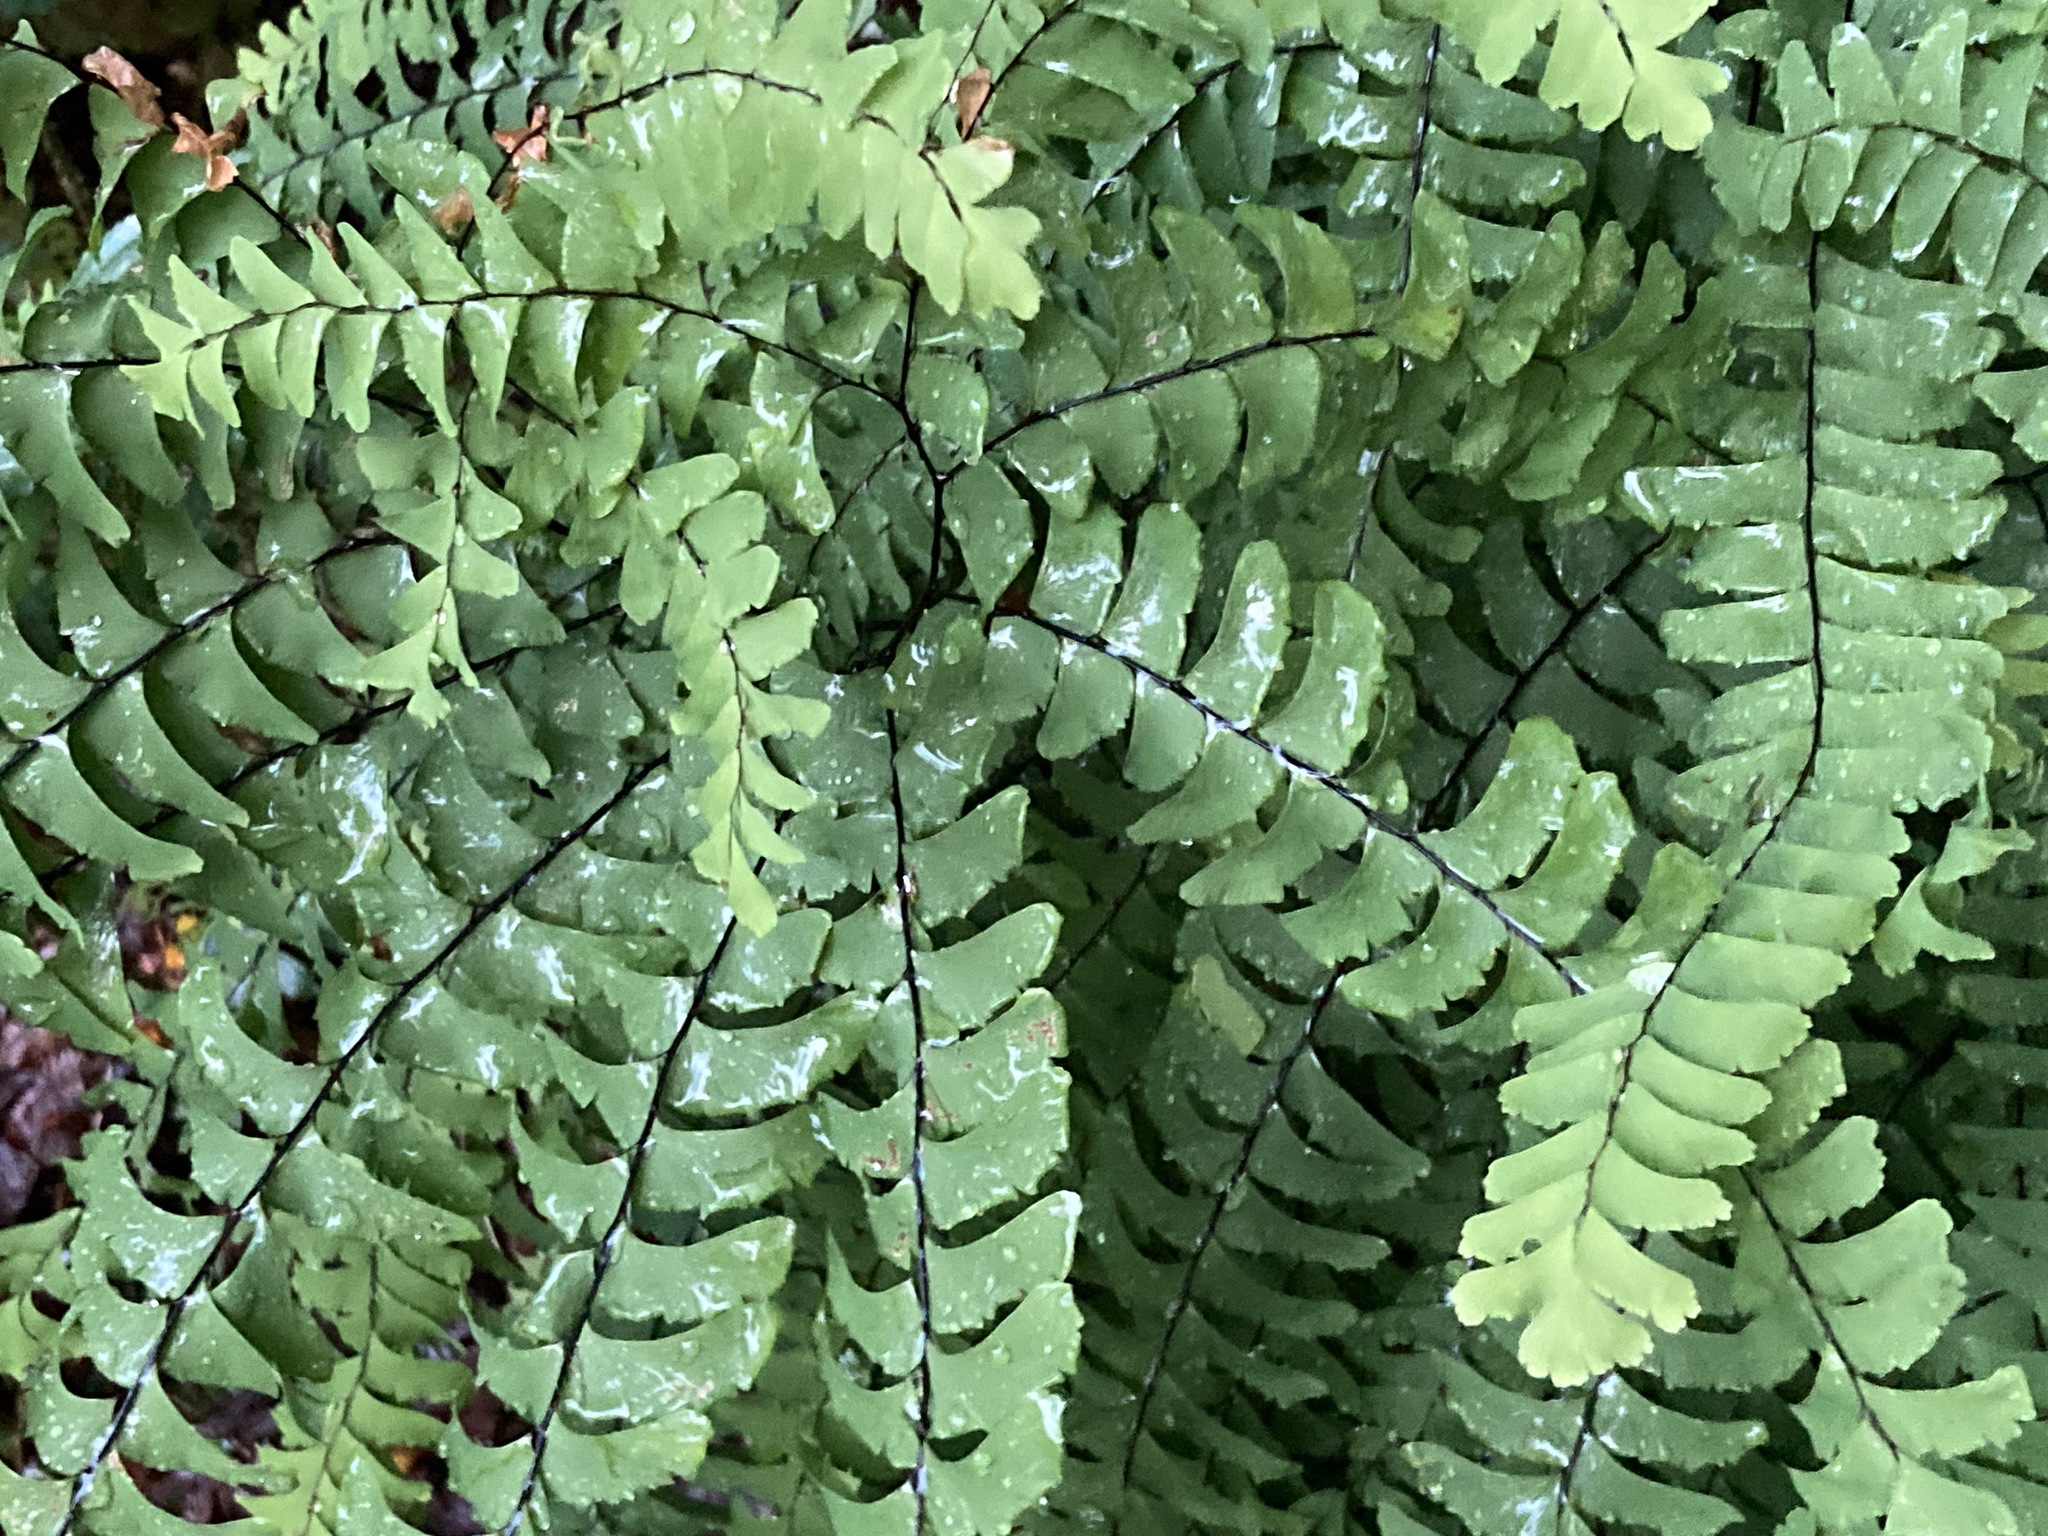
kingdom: Plantae
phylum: Tracheophyta
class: Polypodiopsida
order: Polypodiales
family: Pteridaceae
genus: Adiantum
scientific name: Adiantum pedatum
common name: Five-finger fern
